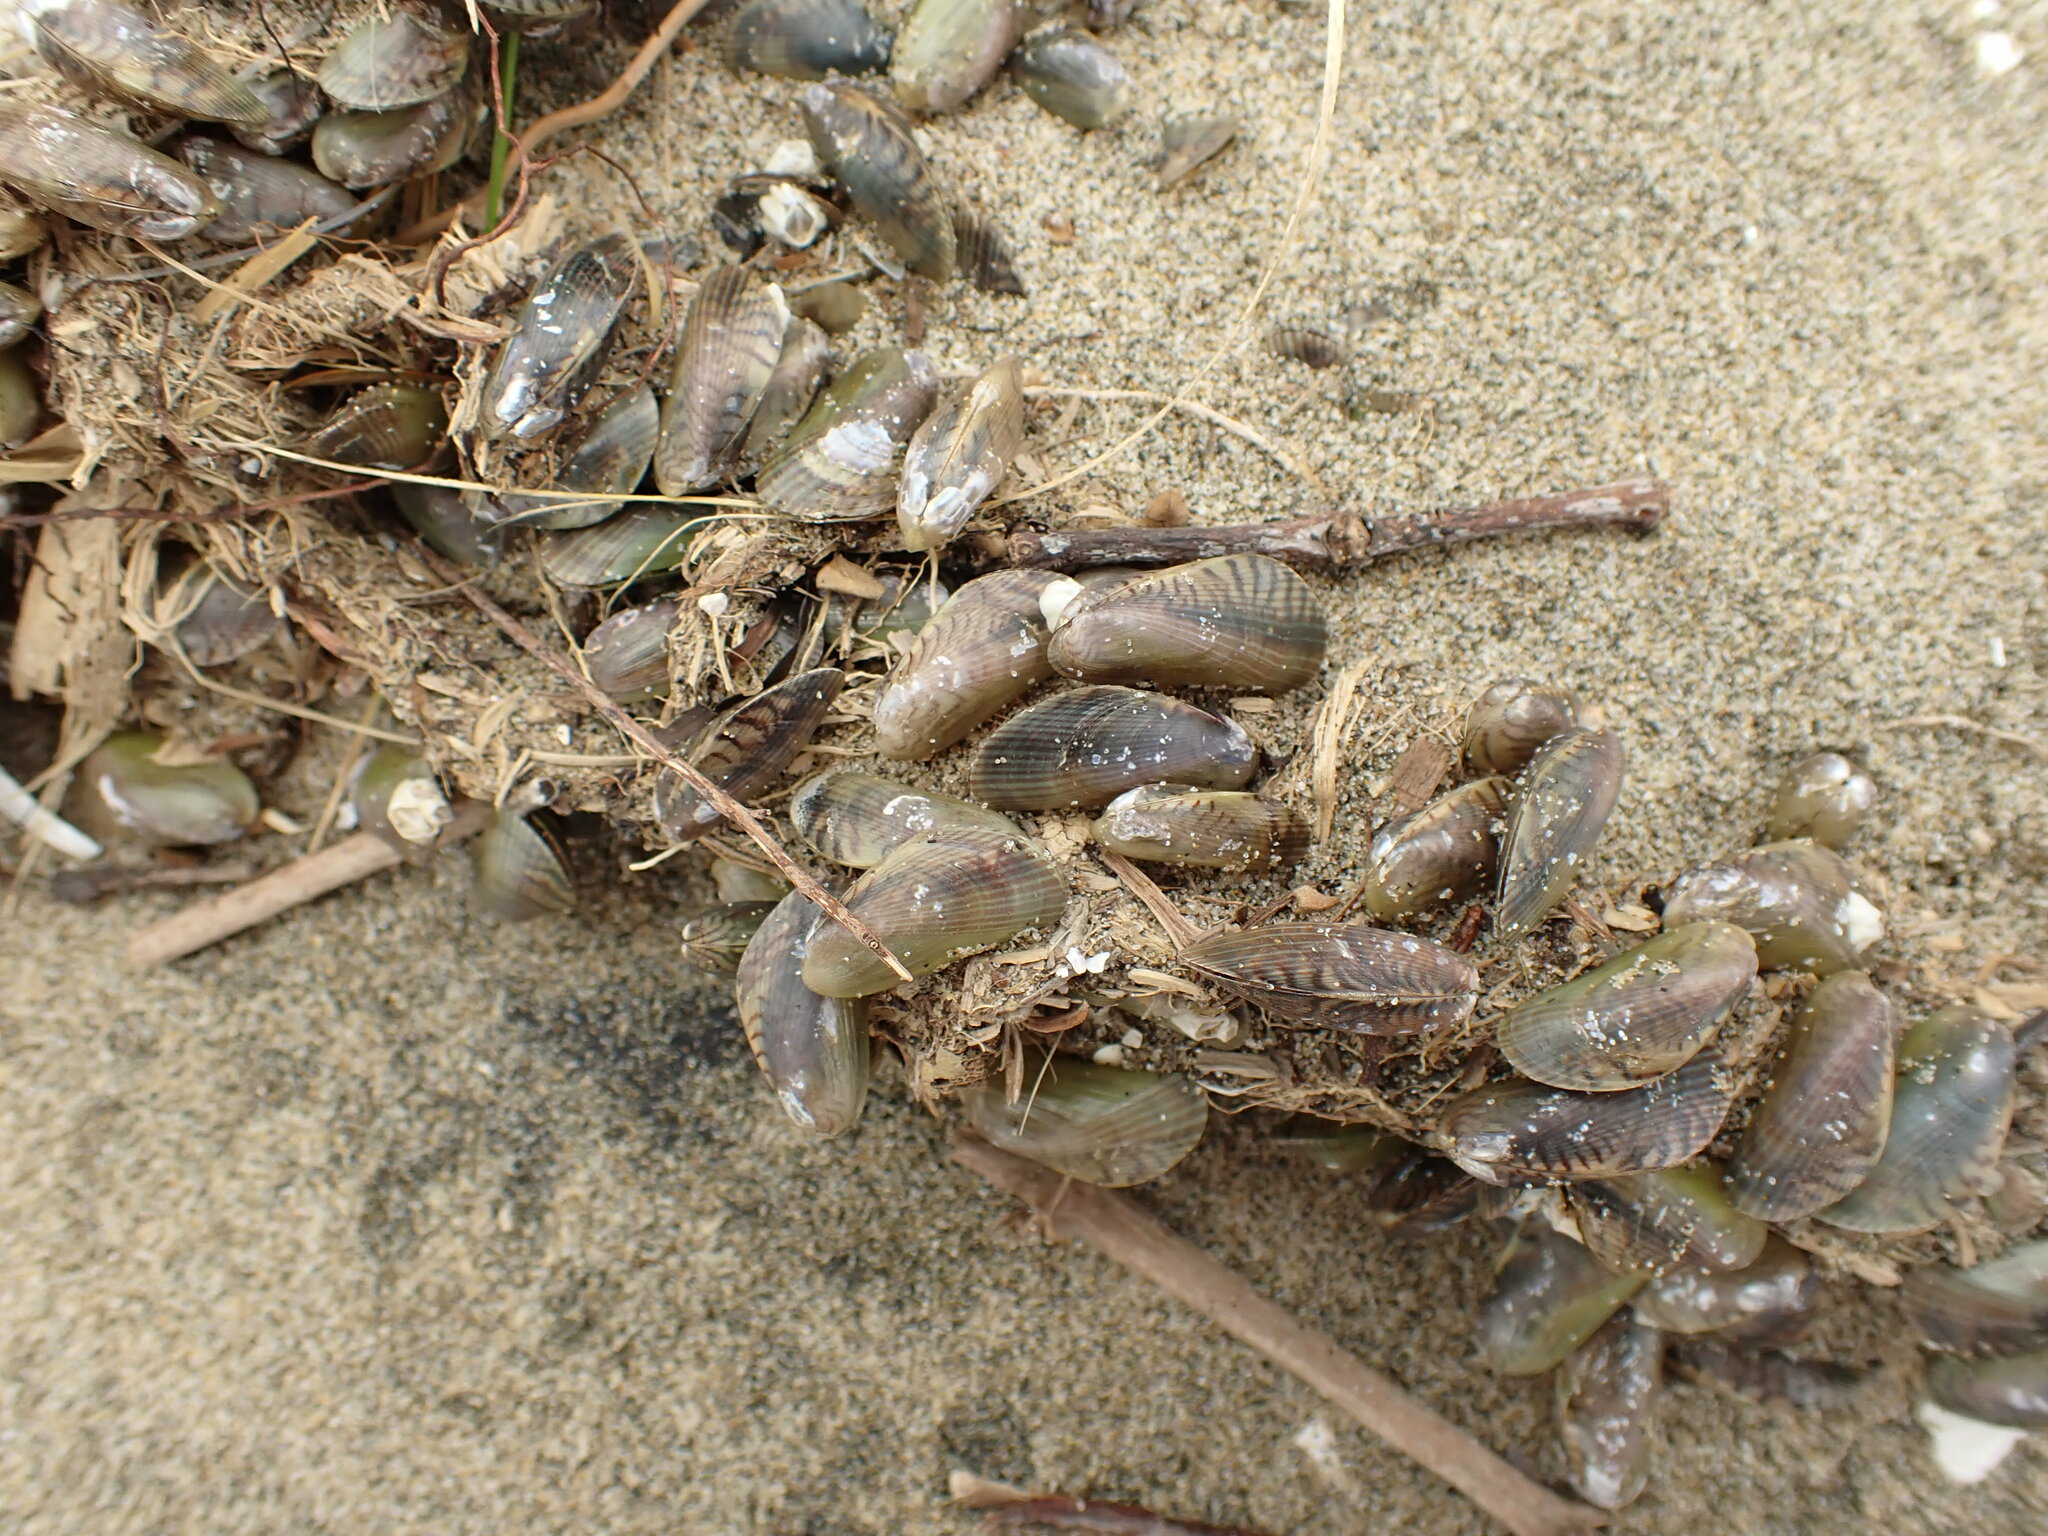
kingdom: Animalia
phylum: Mollusca
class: Bivalvia
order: Mytilida
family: Mytilidae
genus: Arcuatula
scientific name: Arcuatula senhousia
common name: Asian mussel
